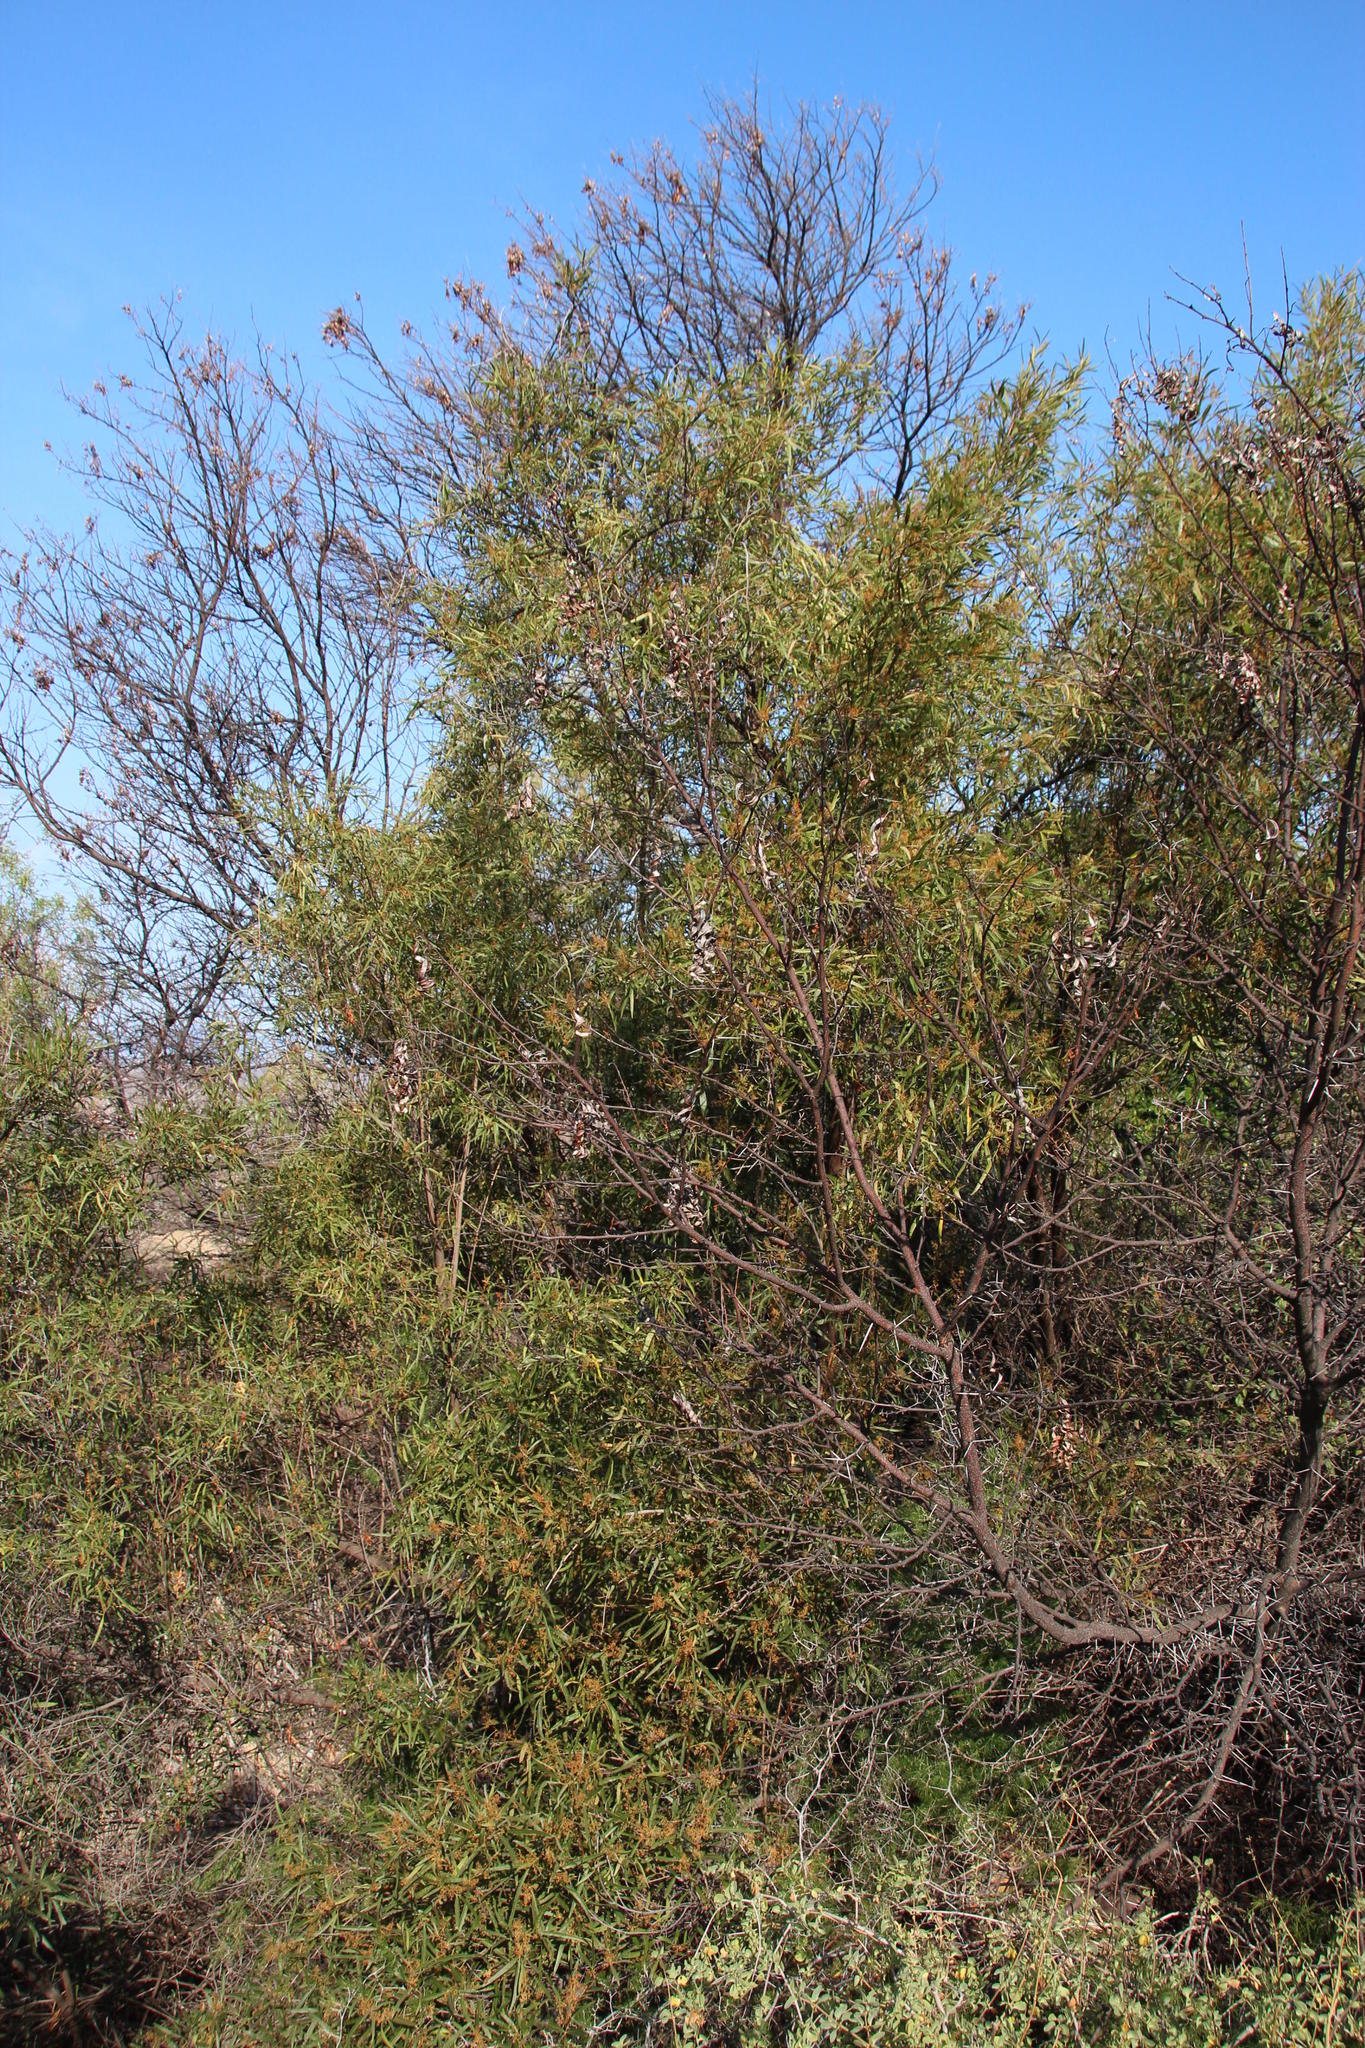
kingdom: Plantae
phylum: Tracheophyta
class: Magnoliopsida
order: Sapindales
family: Anacardiaceae
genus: Searsia
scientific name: Searsia lancea
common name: Cashew
